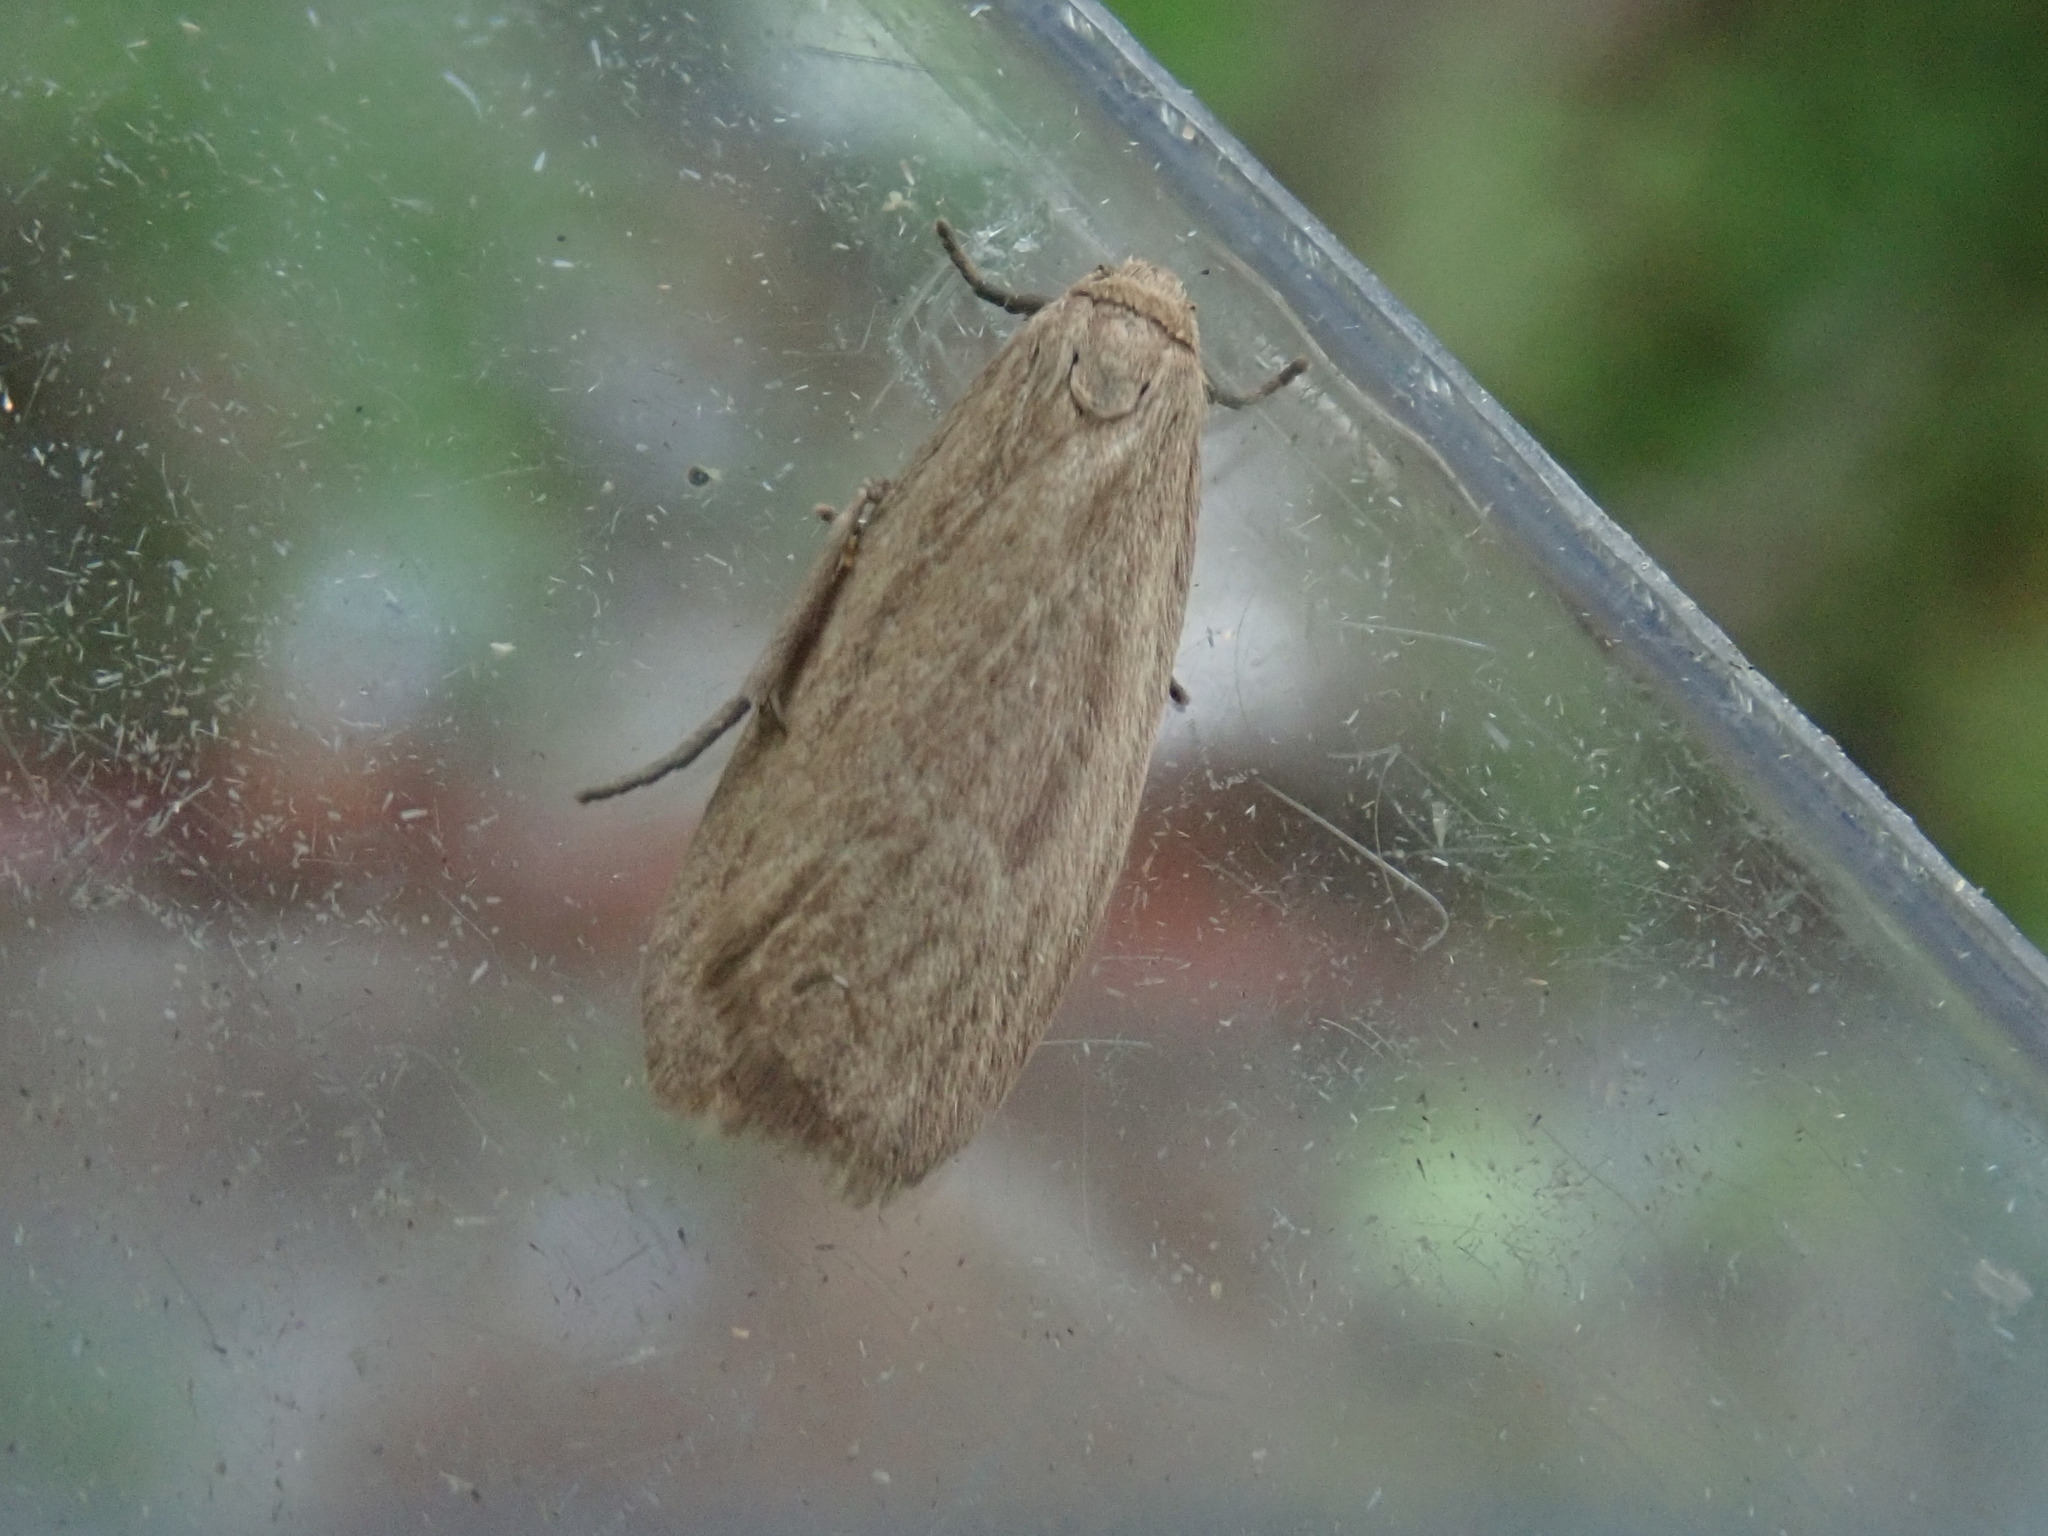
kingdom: Animalia
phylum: Arthropoda
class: Insecta
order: Lepidoptera
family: Erebidae
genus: Crambidia
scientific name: Crambidia pallida
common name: Pale lichen moth
